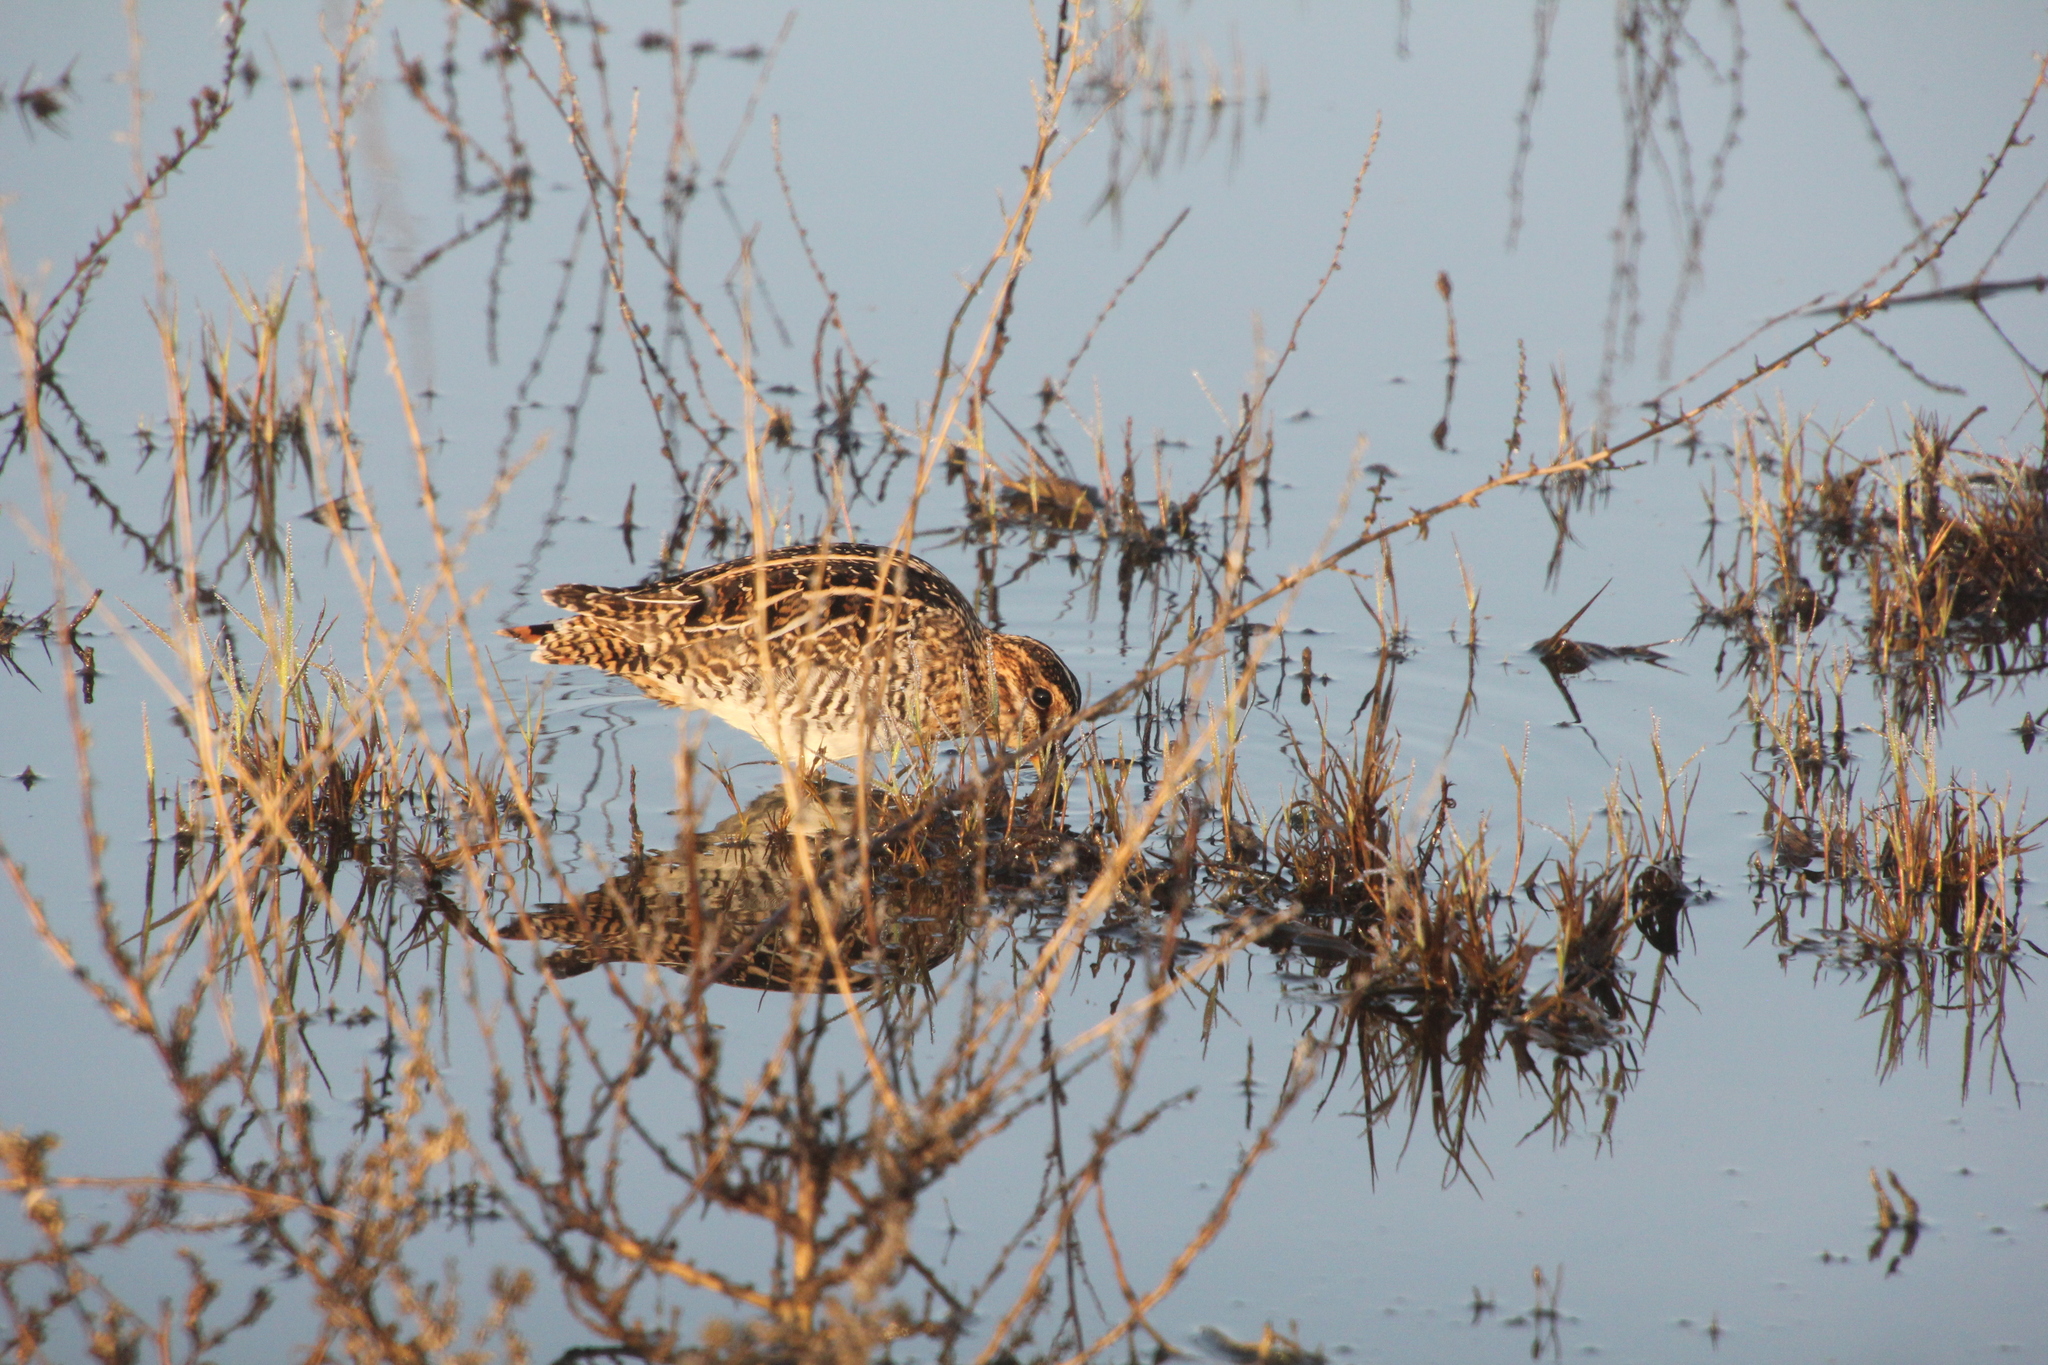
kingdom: Animalia
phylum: Chordata
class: Aves
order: Charadriiformes
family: Scolopacidae
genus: Gallinago
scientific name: Gallinago delicata
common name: Wilson's snipe
